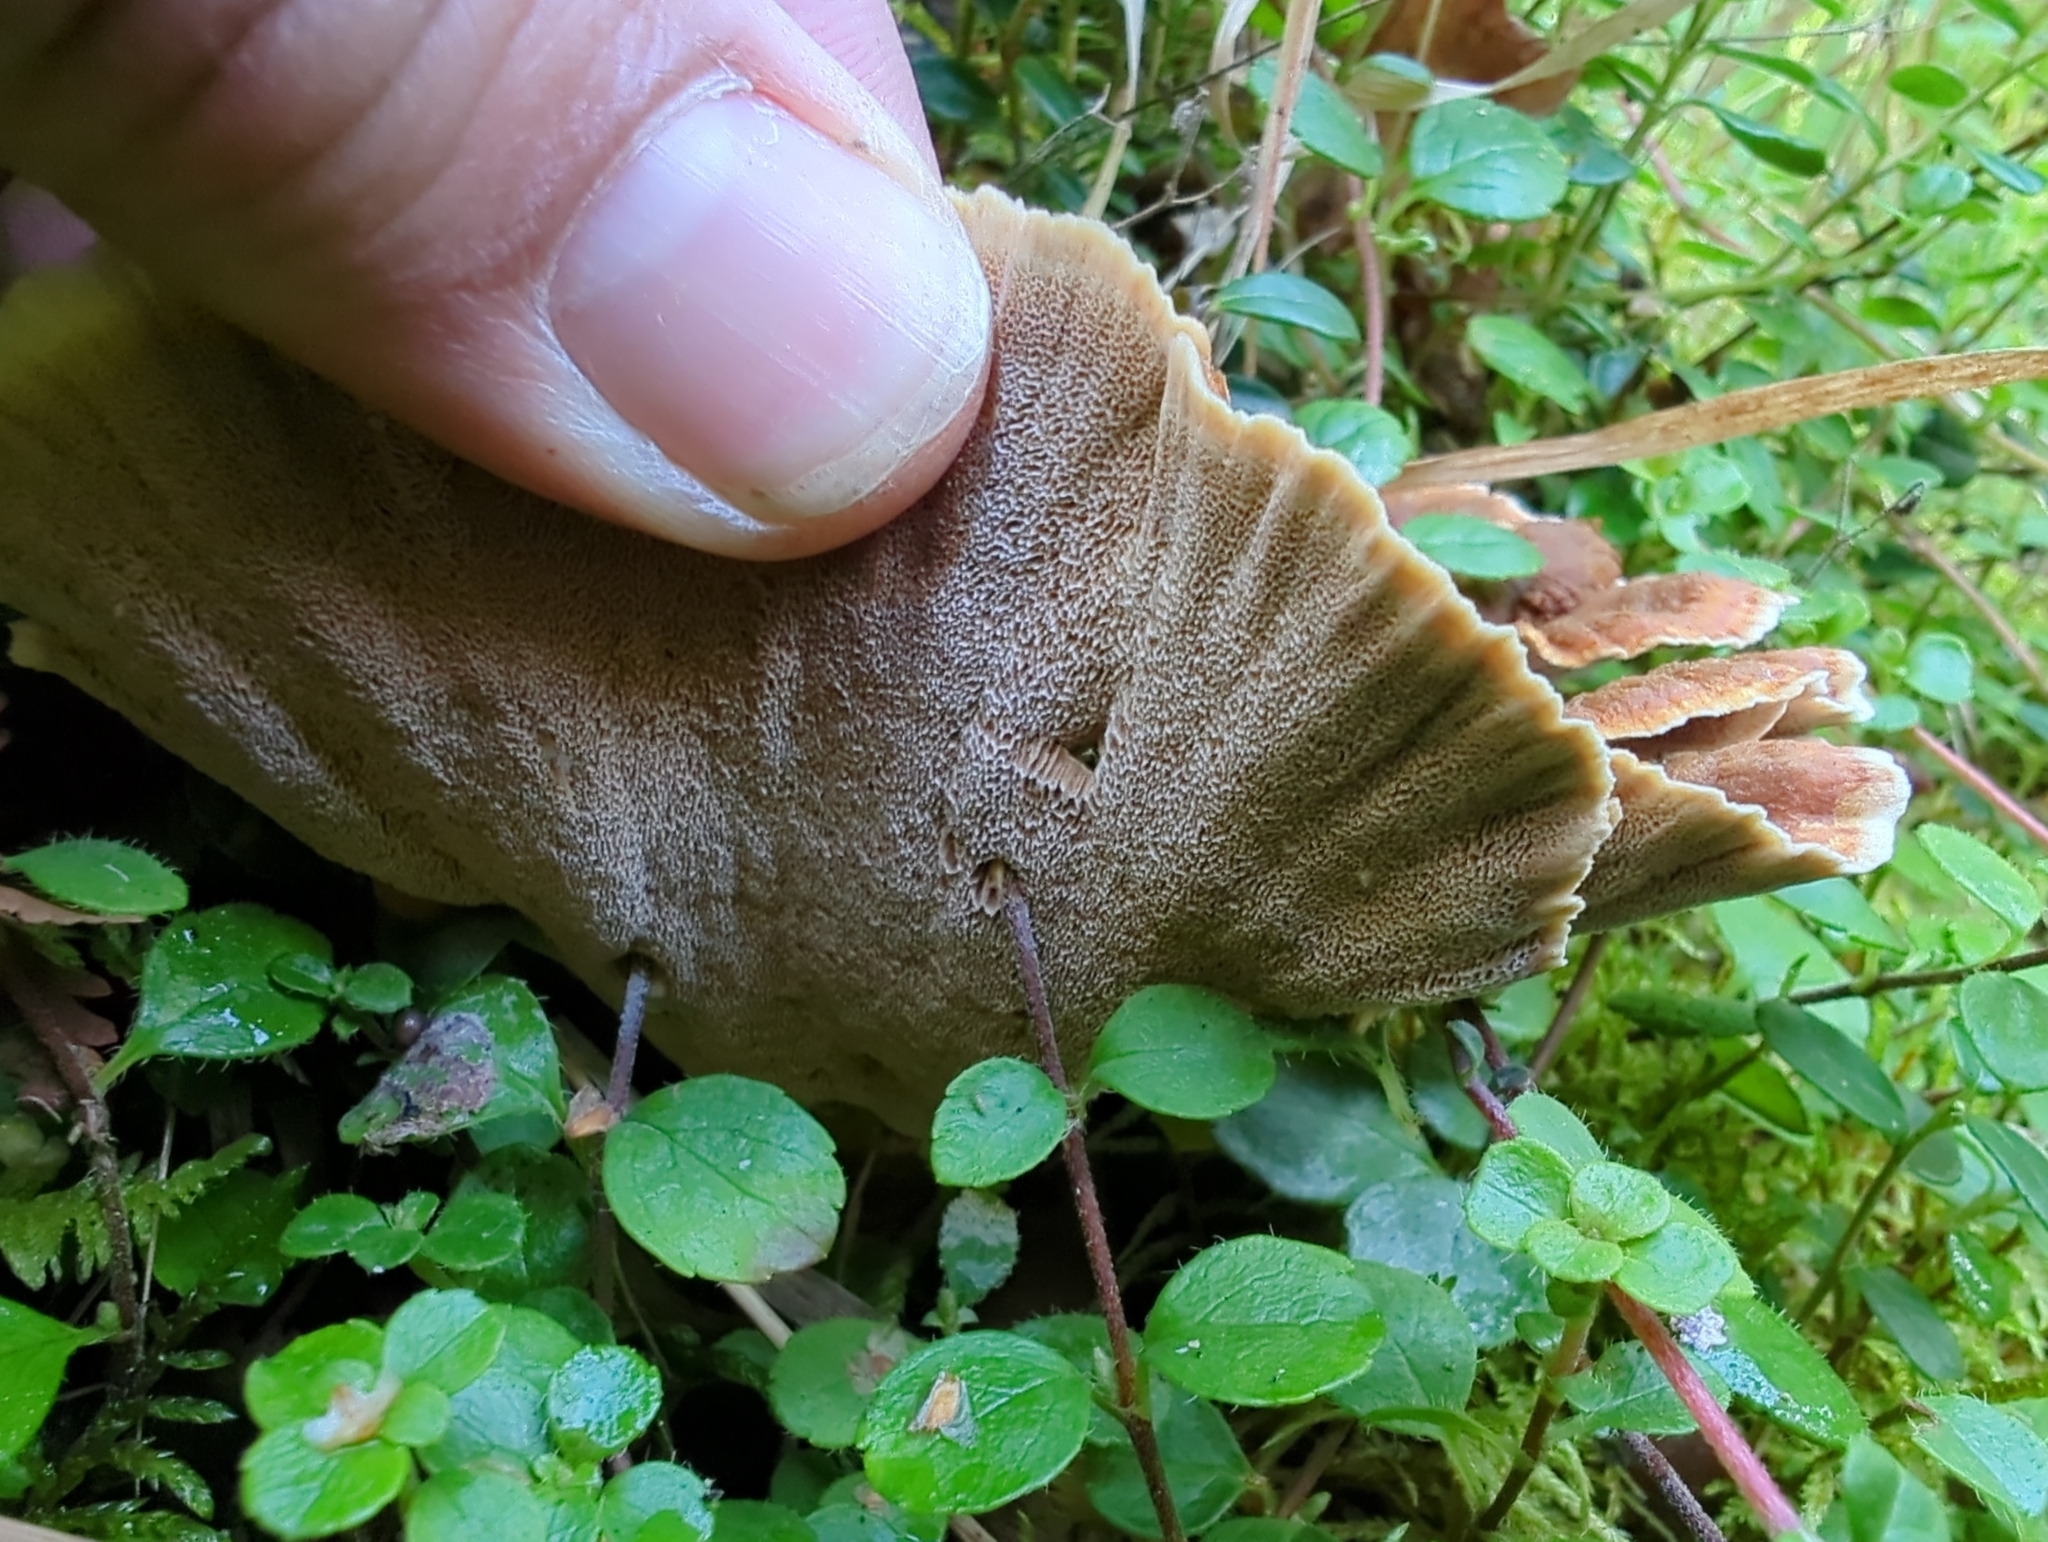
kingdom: Fungi
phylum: Basidiomycota
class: Agaricomycetes
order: Hymenochaetales
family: Hymenochaetaceae
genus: Onnia
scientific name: Onnia tomentosa
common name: Velvet rosette
